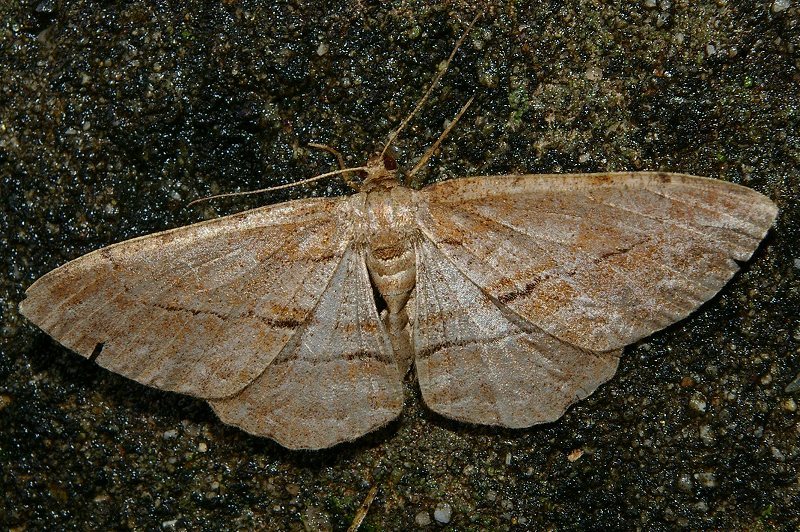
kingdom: Animalia
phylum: Arthropoda
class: Insecta
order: Lepidoptera
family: Geometridae
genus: Apocleora
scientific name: Apocleora rimosa
